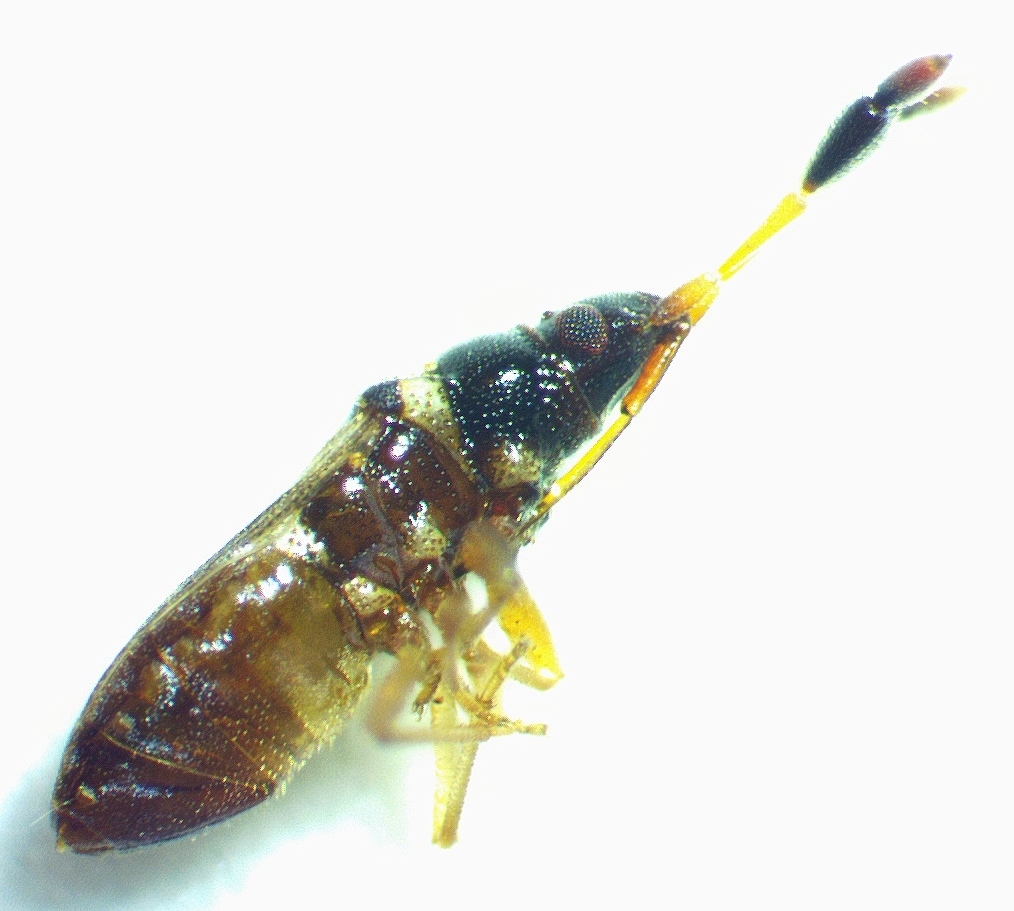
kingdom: Animalia
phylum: Arthropoda
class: Insecta
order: Hemiptera
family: Rhyparochromidae
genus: Ptochiomera
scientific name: Ptochiomera nodosa
